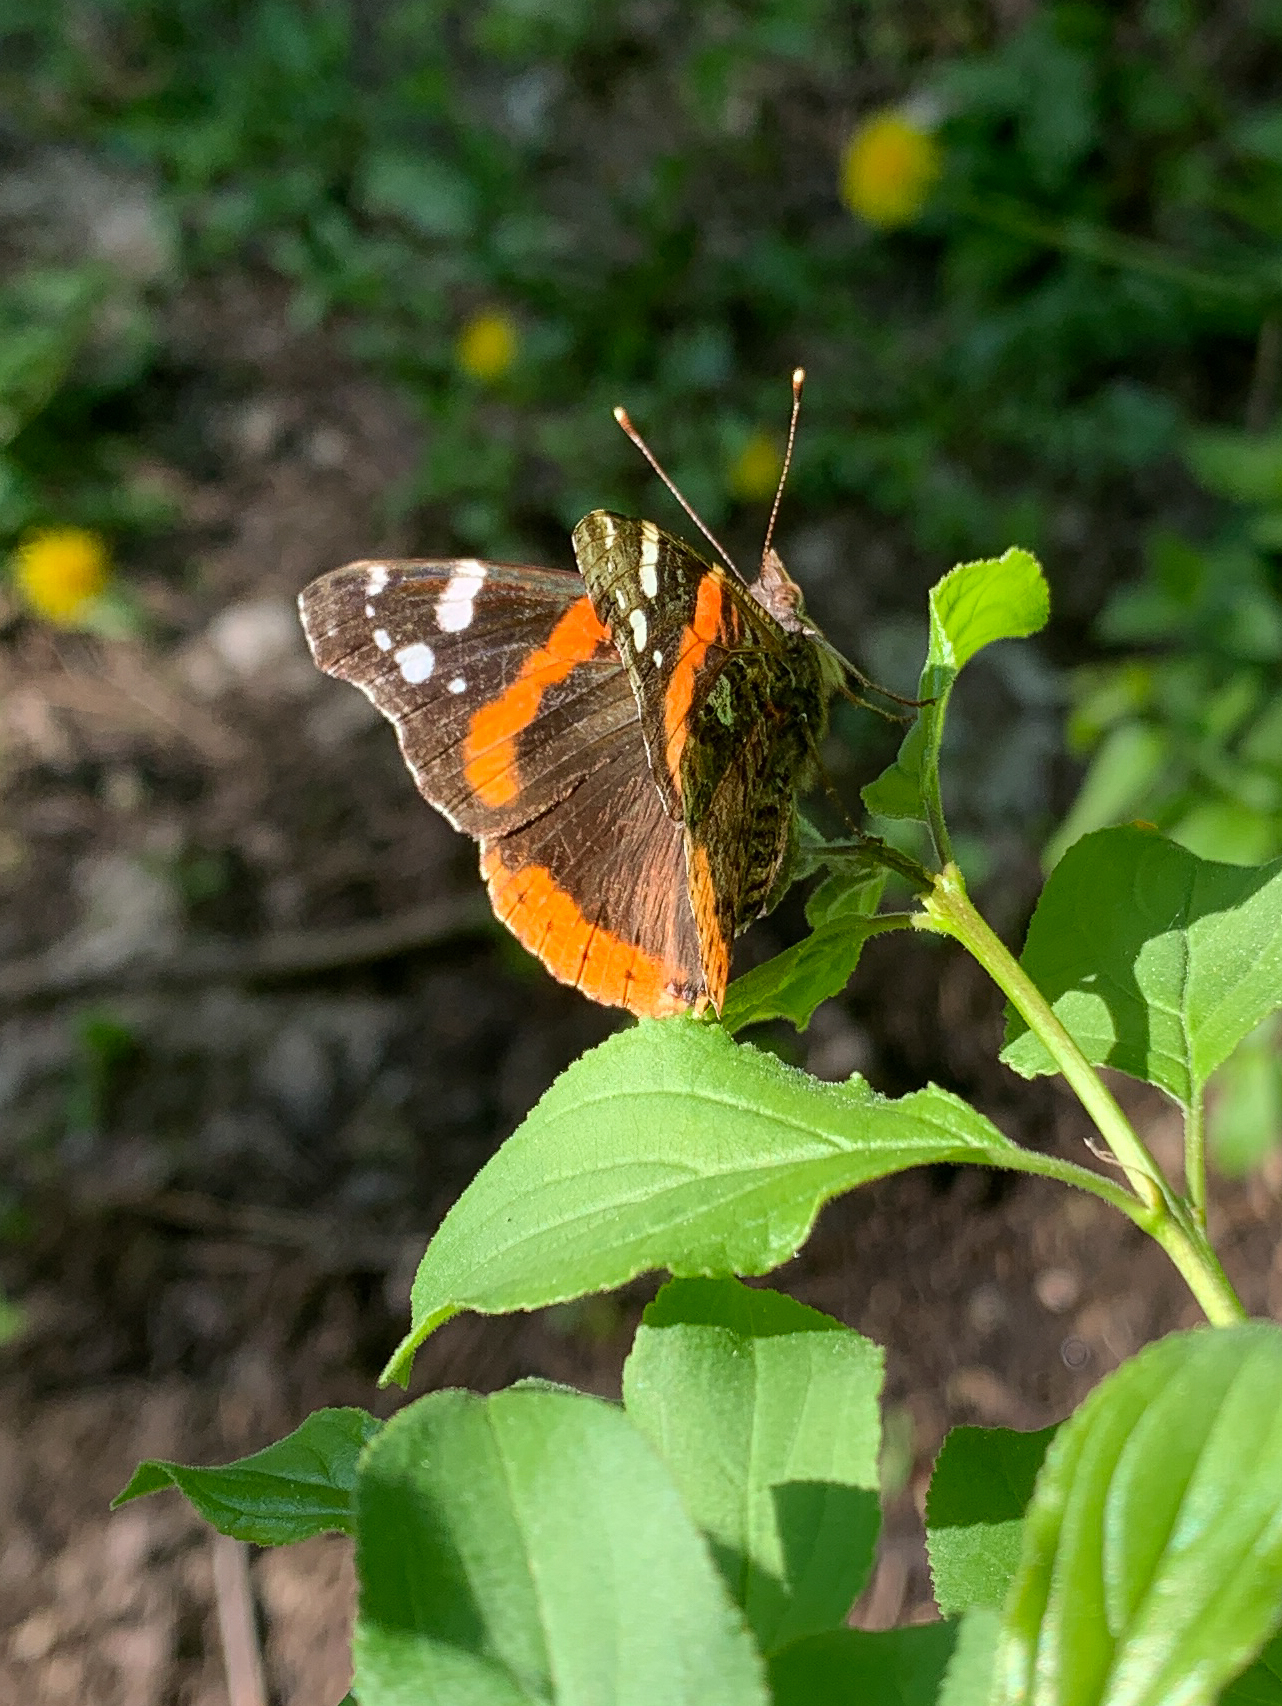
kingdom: Animalia
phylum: Arthropoda
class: Insecta
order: Lepidoptera
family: Nymphalidae
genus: Vanessa
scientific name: Vanessa atalanta
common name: Red admiral
